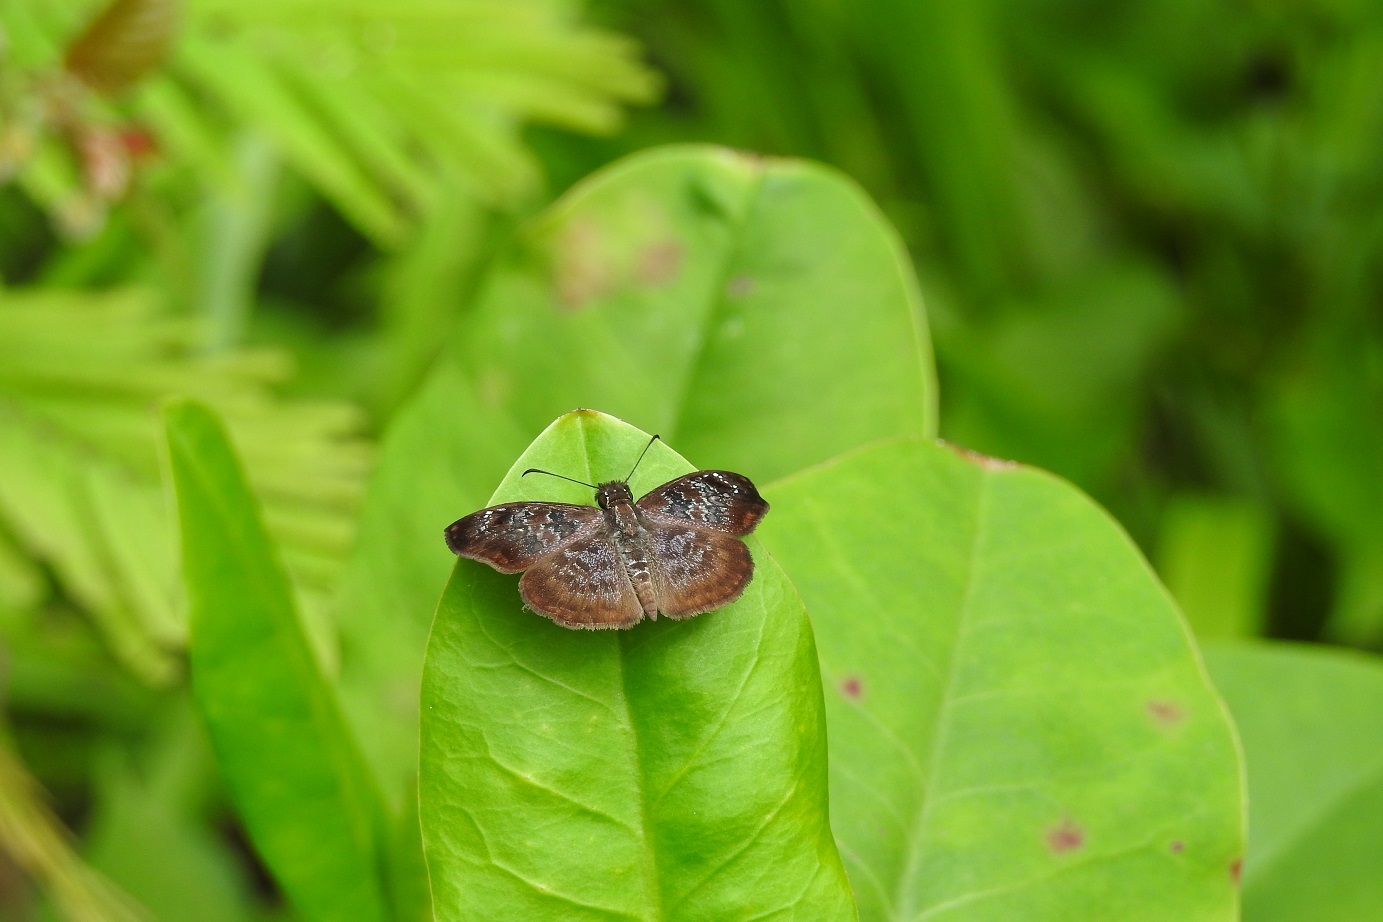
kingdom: Animalia
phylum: Arthropoda
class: Insecta
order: Lepidoptera
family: Hesperiidae
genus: Sophista
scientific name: Sophista bifasciata
